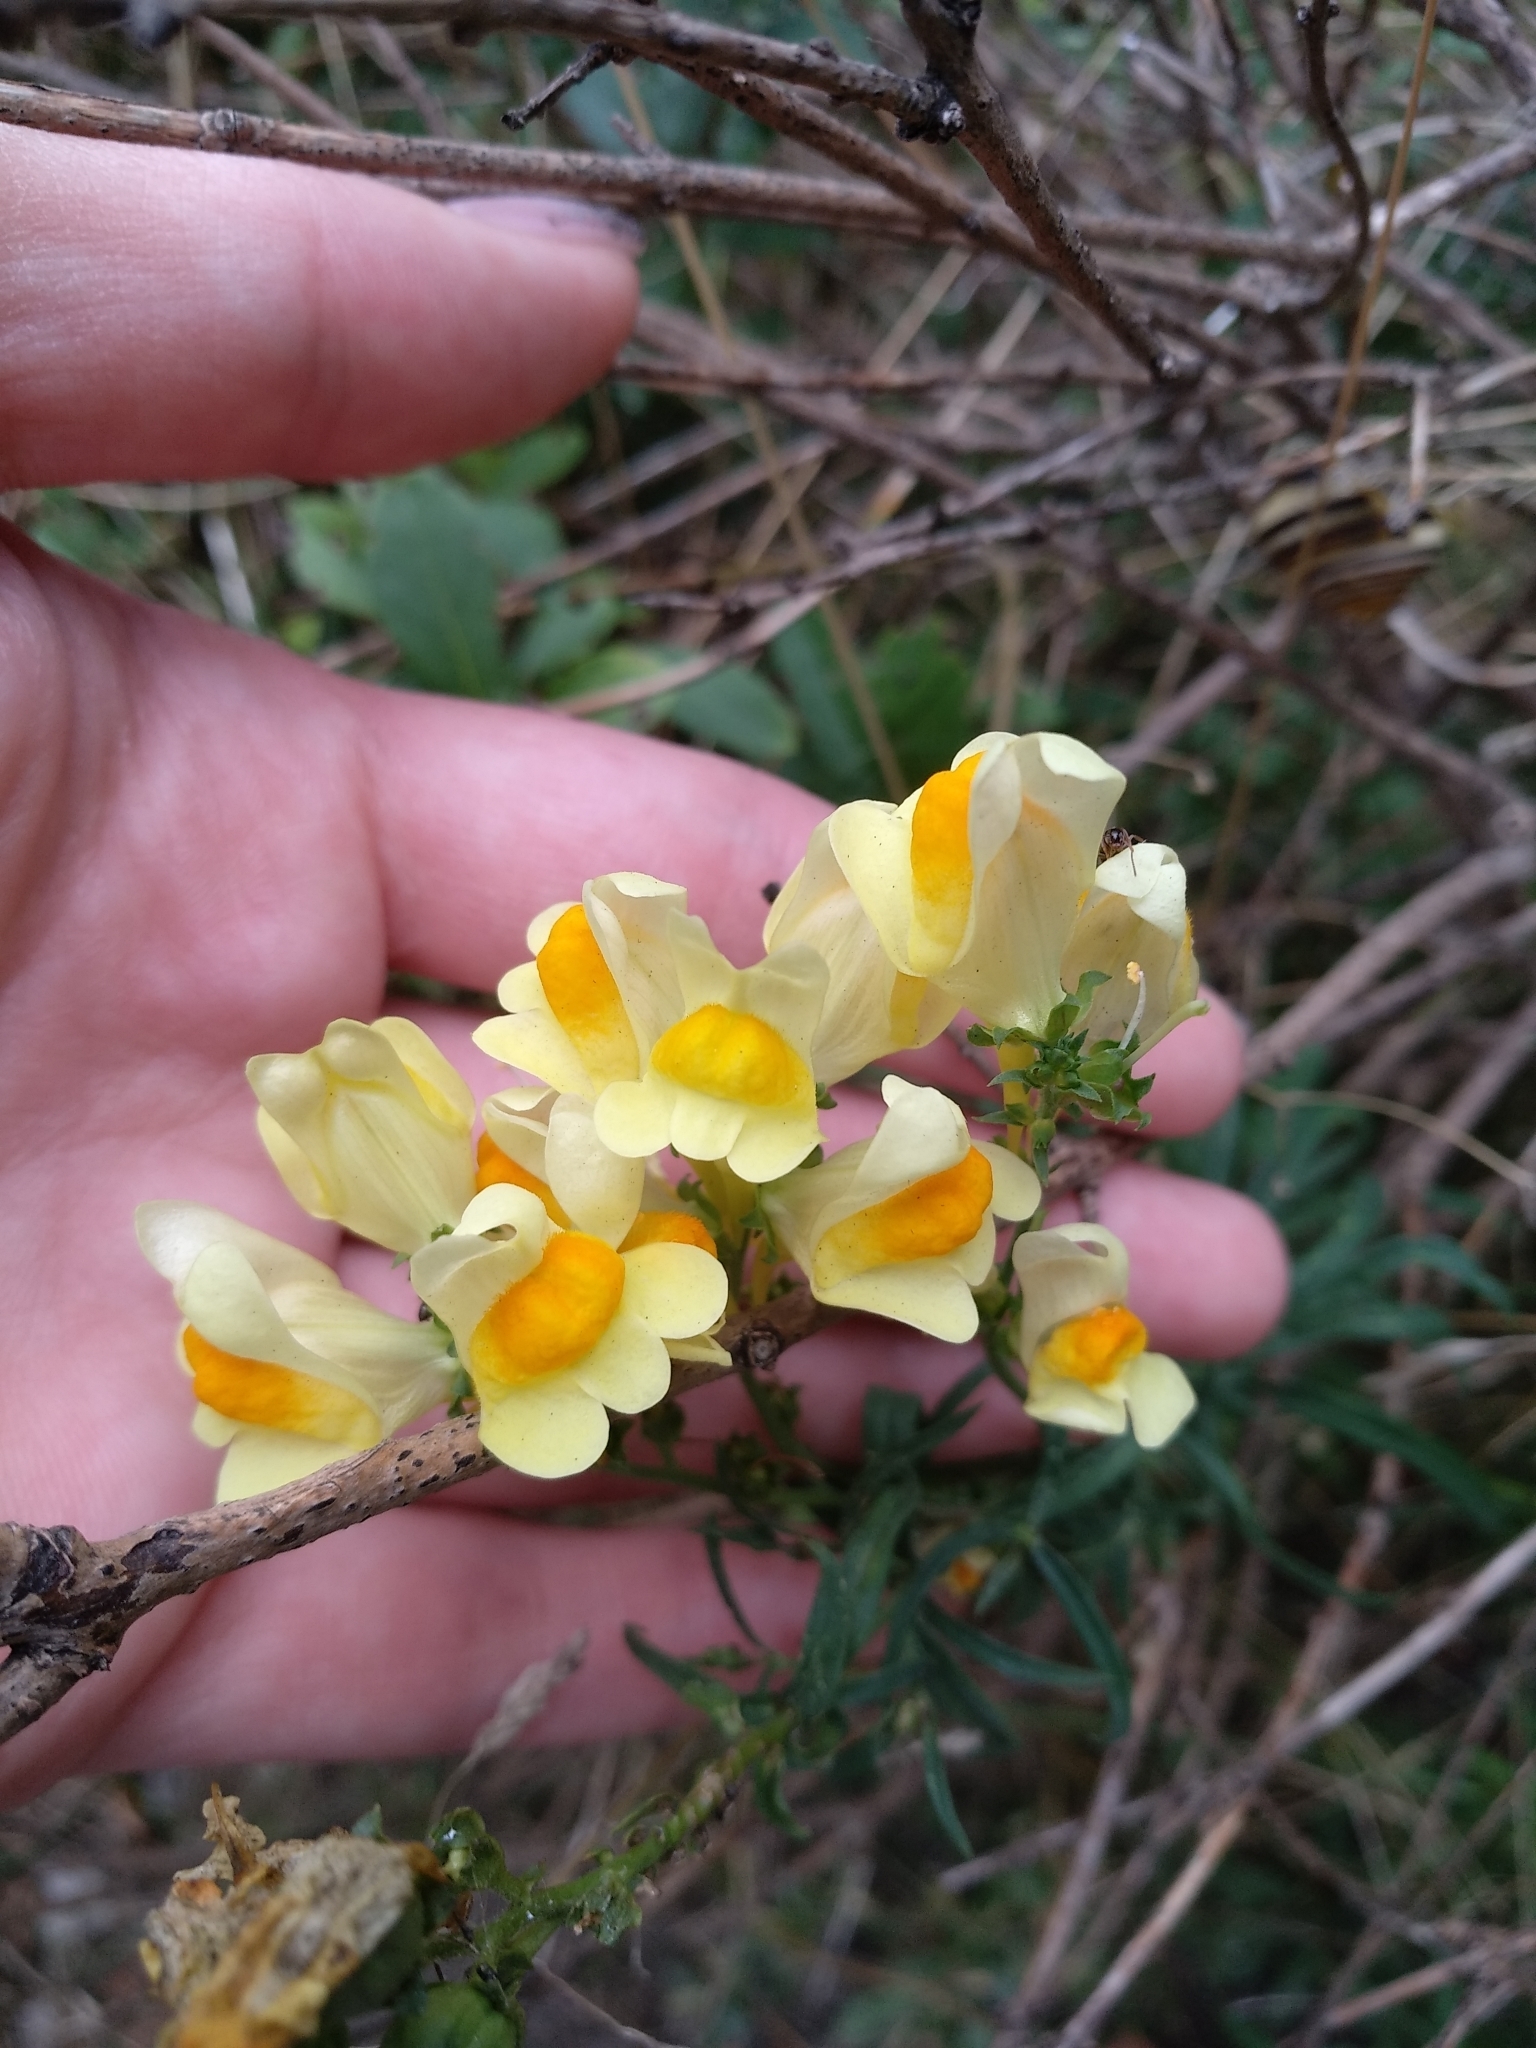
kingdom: Plantae
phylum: Tracheophyta
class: Magnoliopsida
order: Lamiales
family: Plantaginaceae
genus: Linaria
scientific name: Linaria vulgaris
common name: Butter and eggs
